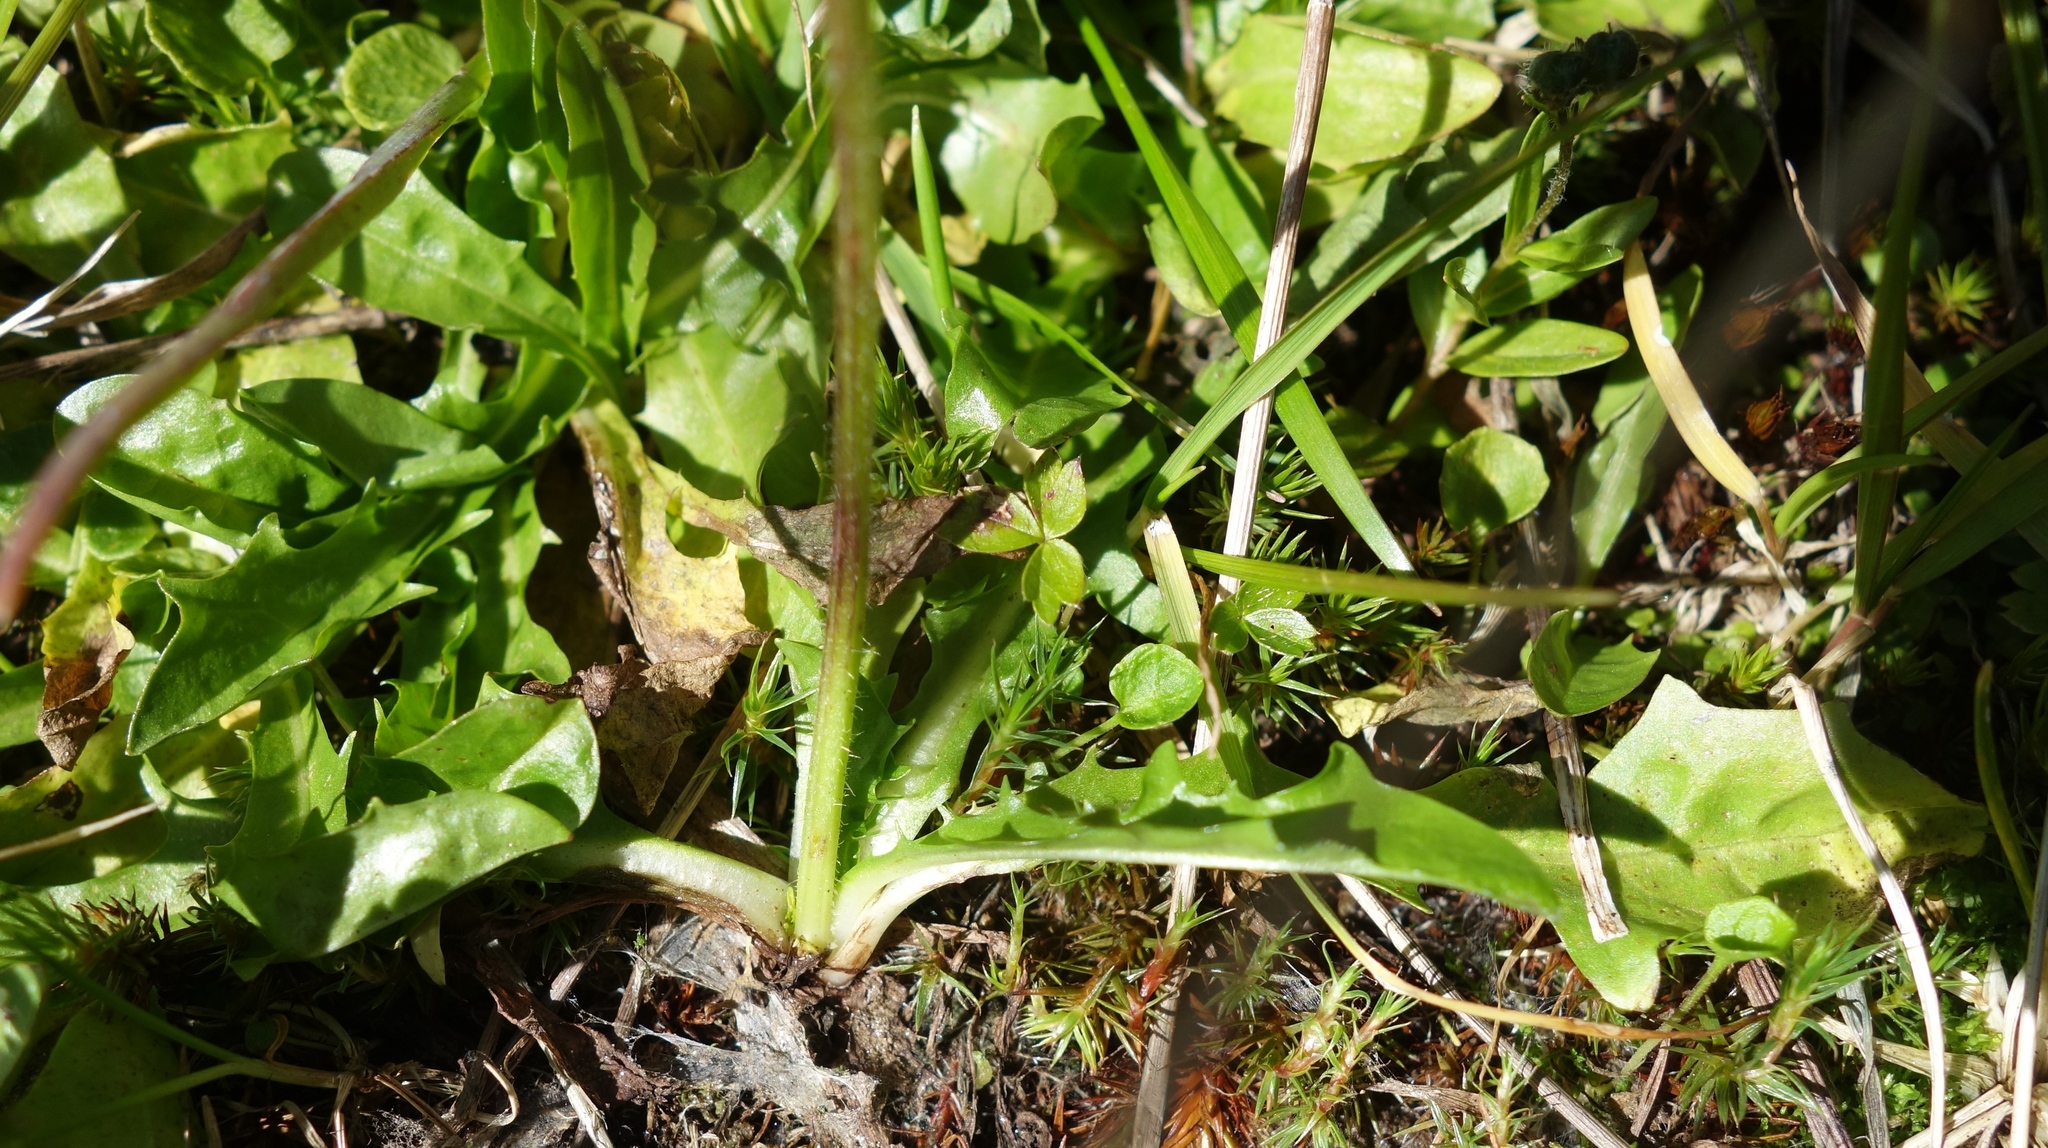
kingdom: Plantae
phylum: Tracheophyta
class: Magnoliopsida
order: Asterales
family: Asteraceae
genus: Crepis
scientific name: Crepis aurea
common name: Golden hawk's-beard
